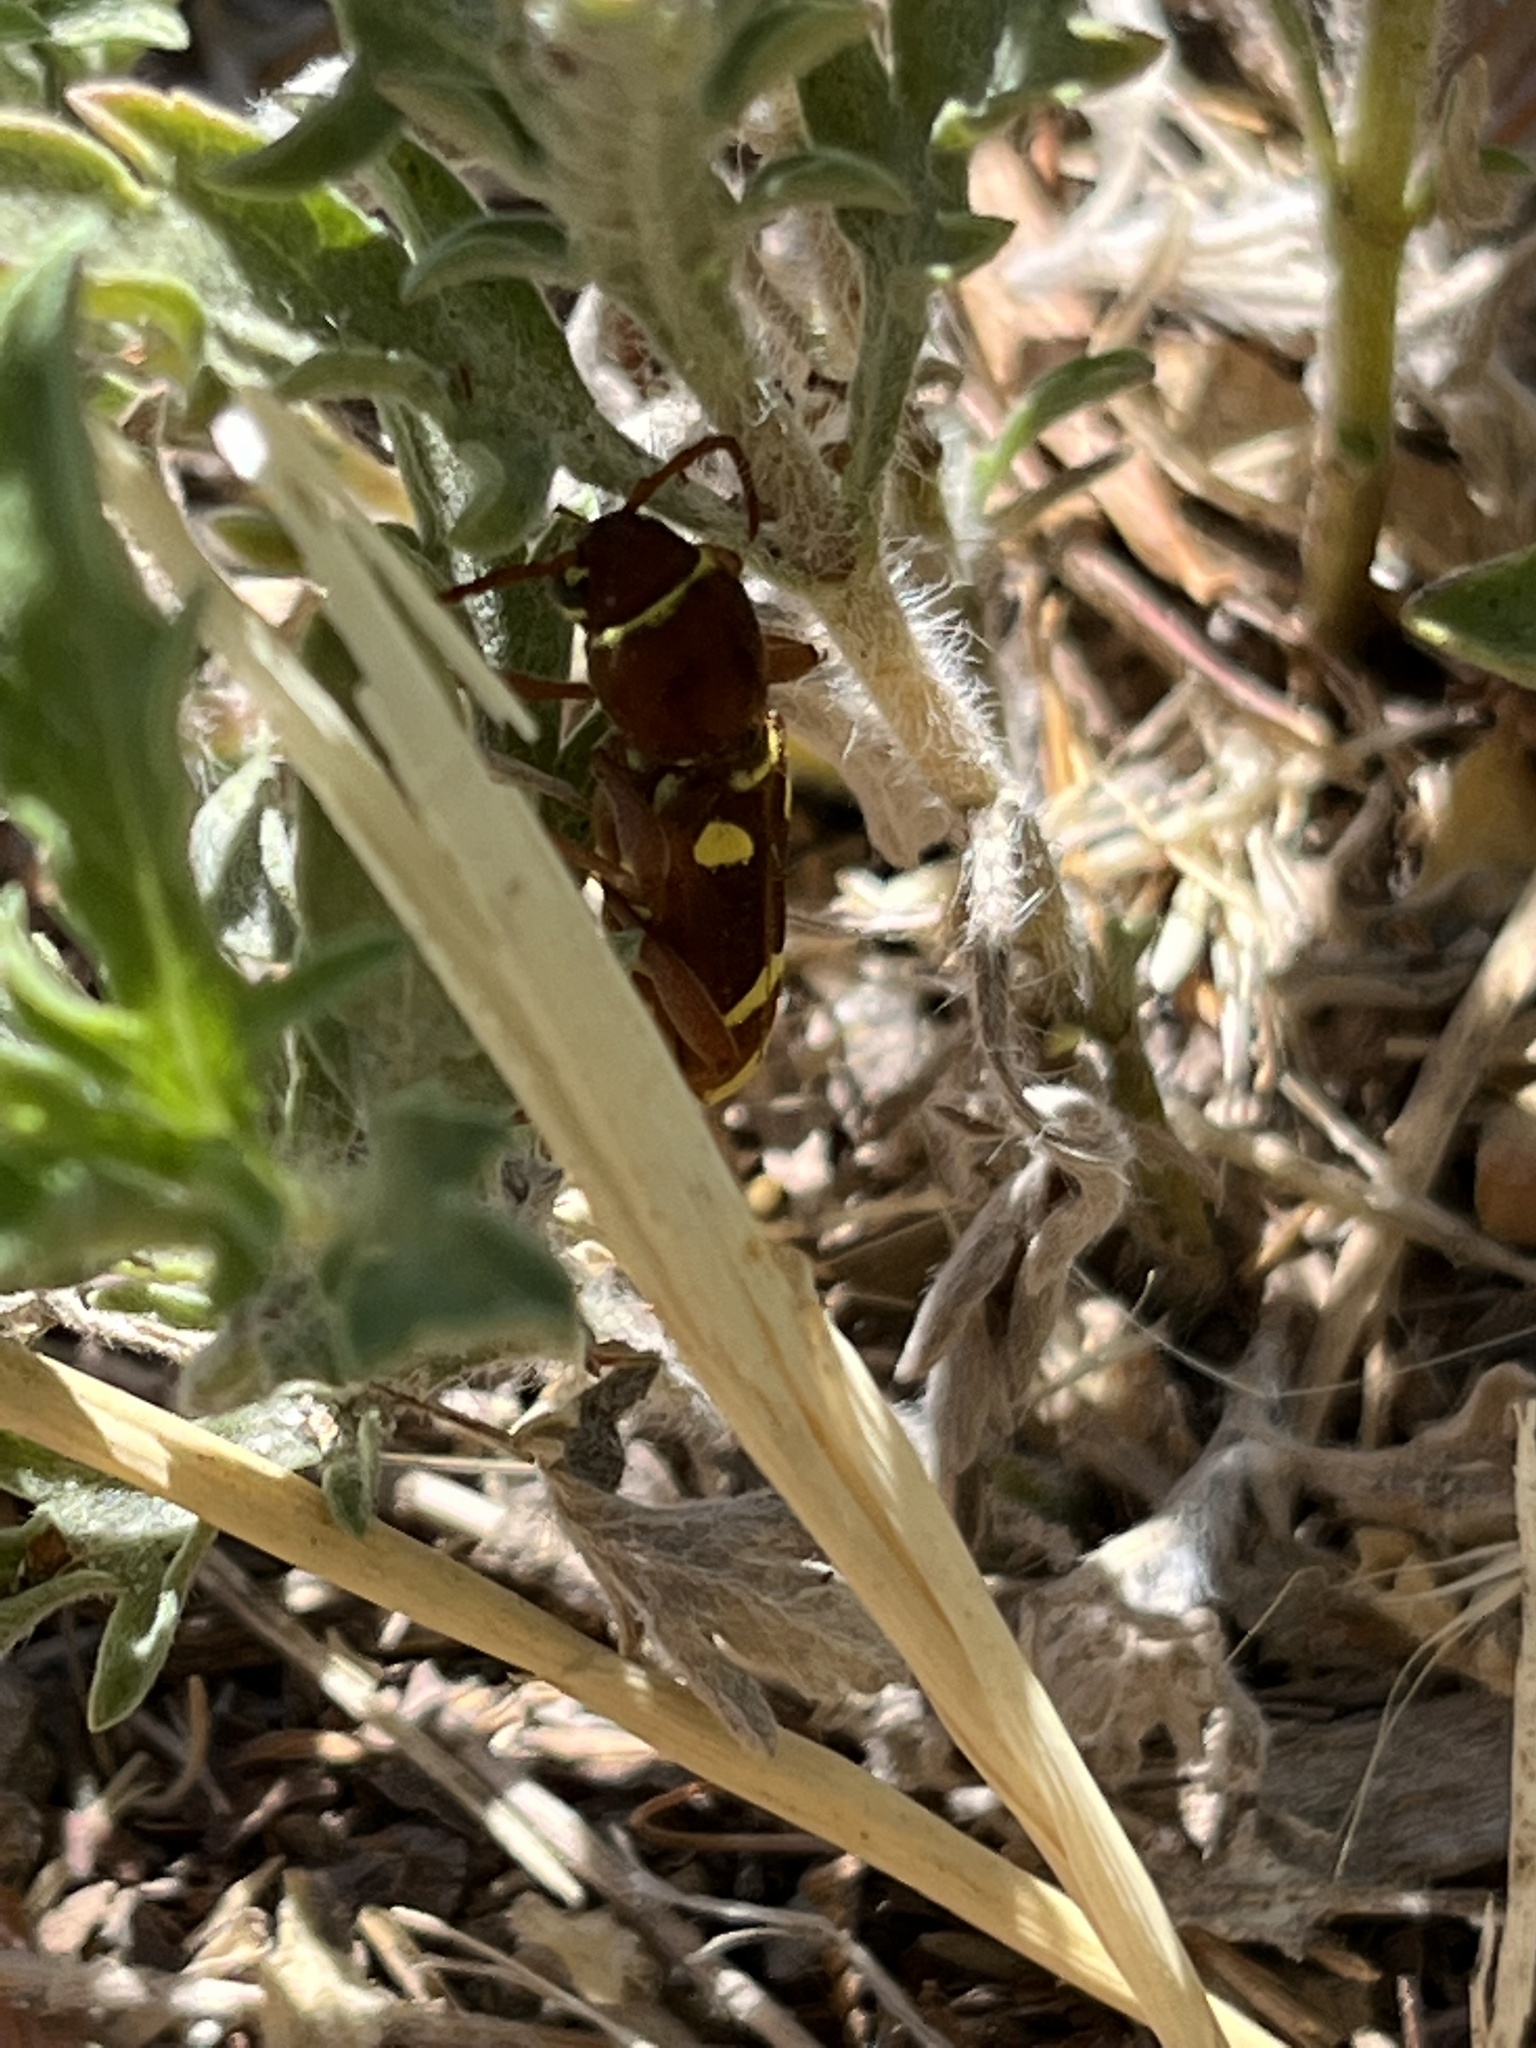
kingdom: Animalia
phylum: Arthropoda
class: Insecta
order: Coleoptera
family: Cerambycidae
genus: Xylotrechus
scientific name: Xylotrechus insignis
